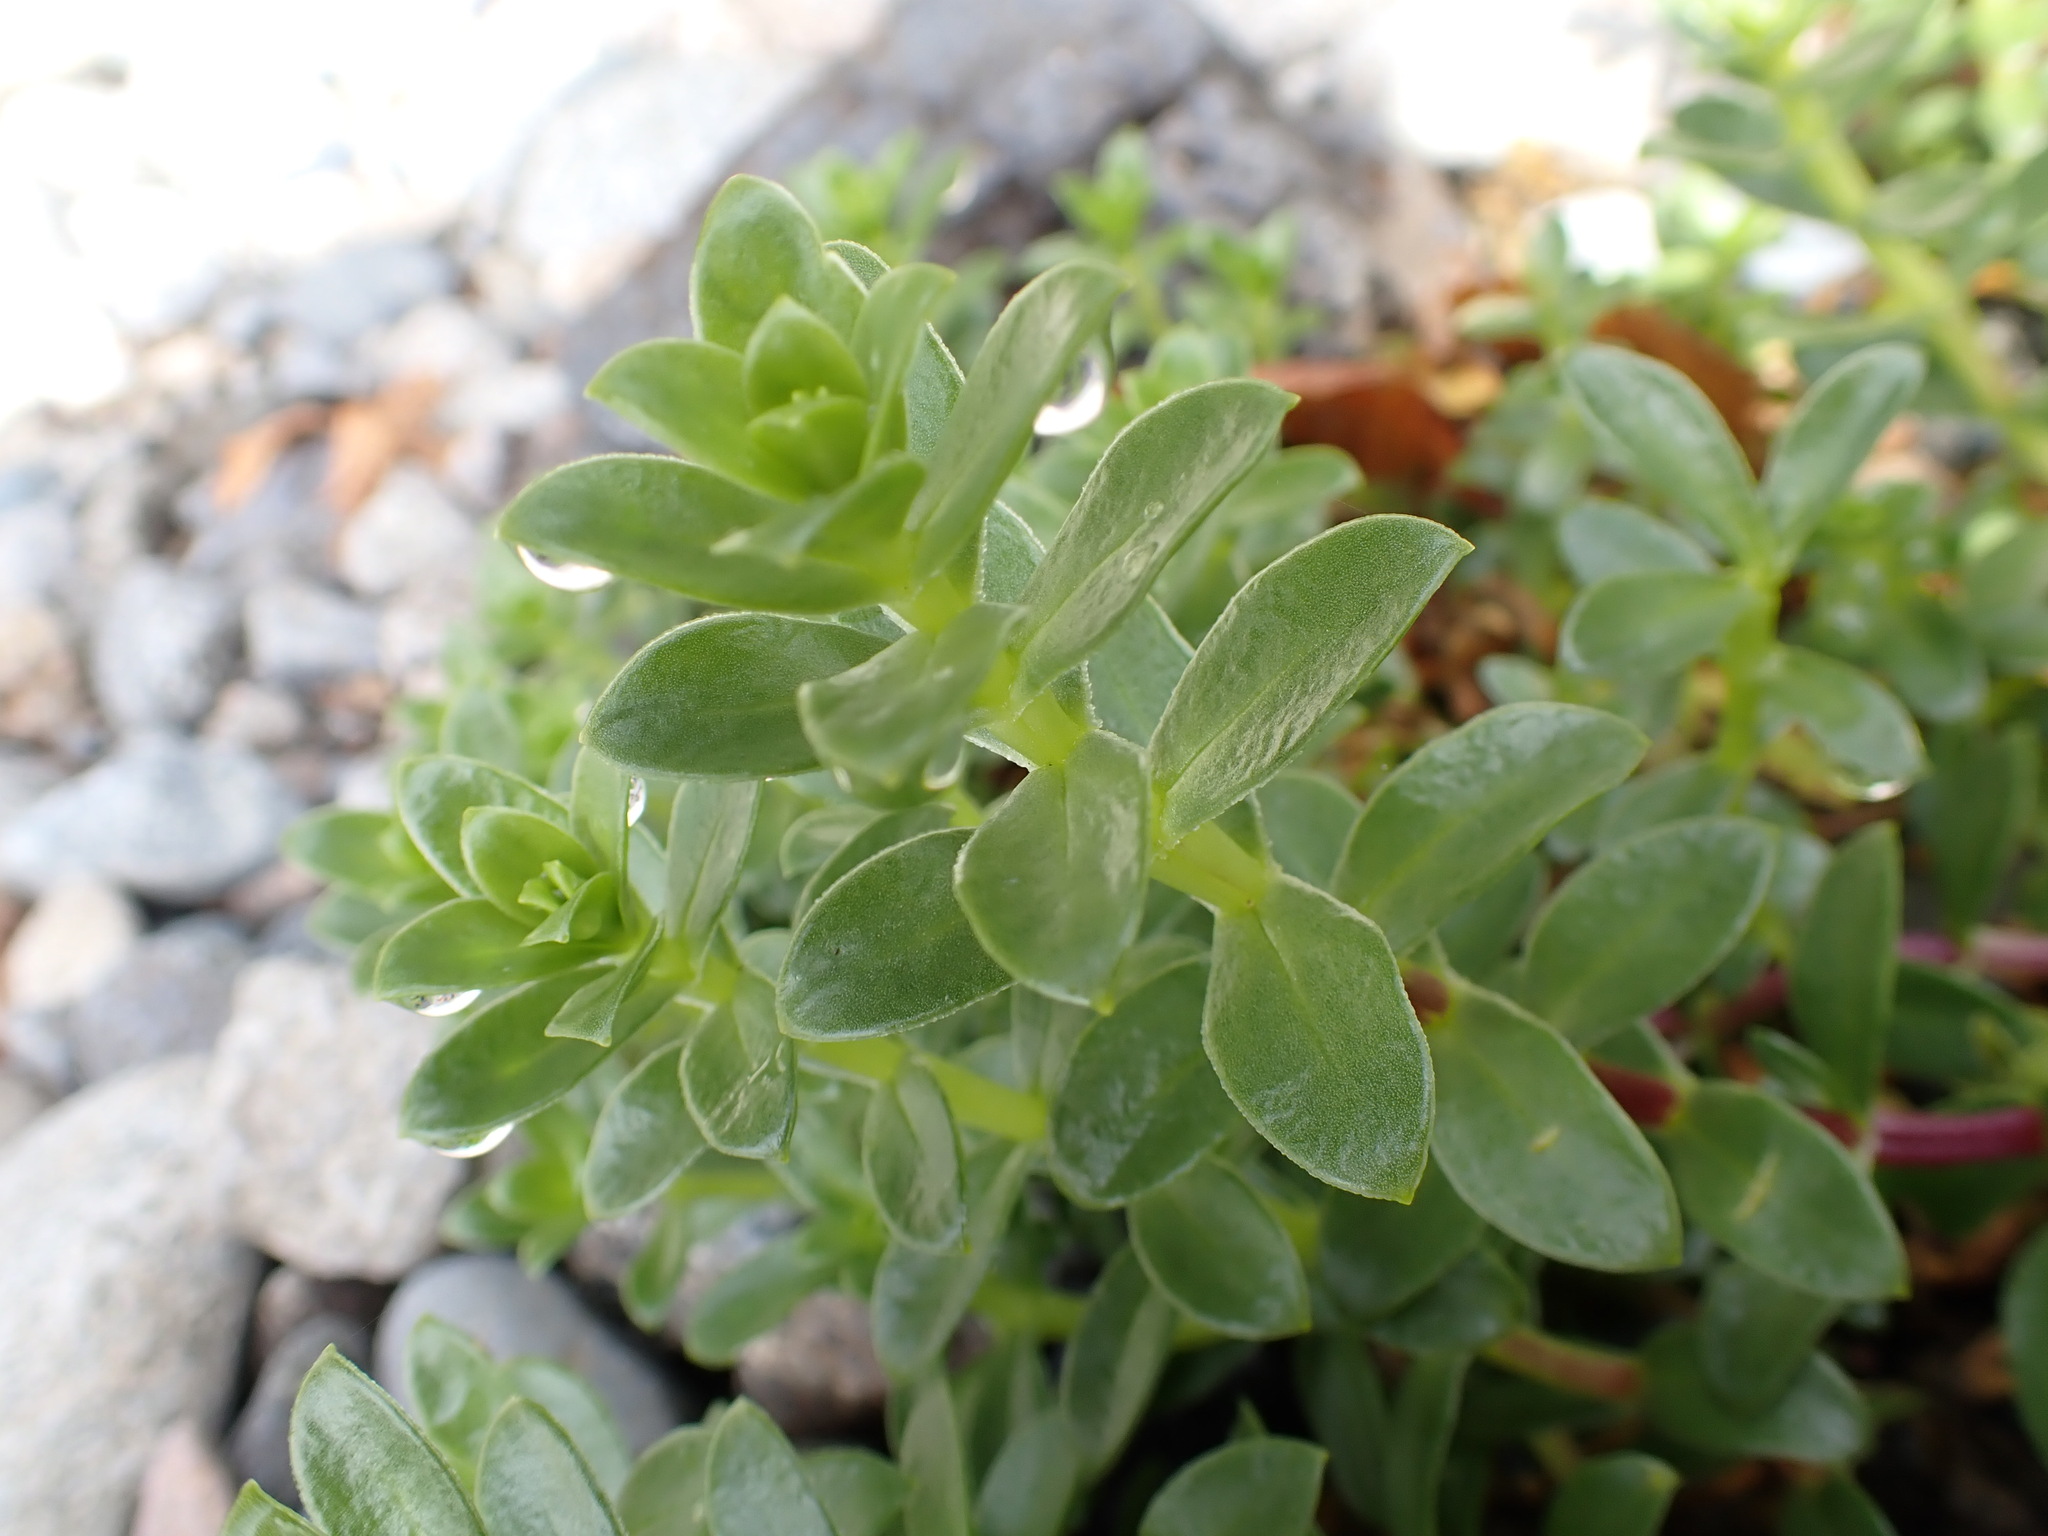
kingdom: Plantae
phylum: Tracheophyta
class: Magnoliopsida
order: Caryophyllales
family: Caryophyllaceae
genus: Honckenya
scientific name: Honckenya peploides
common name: Sea sandwort
